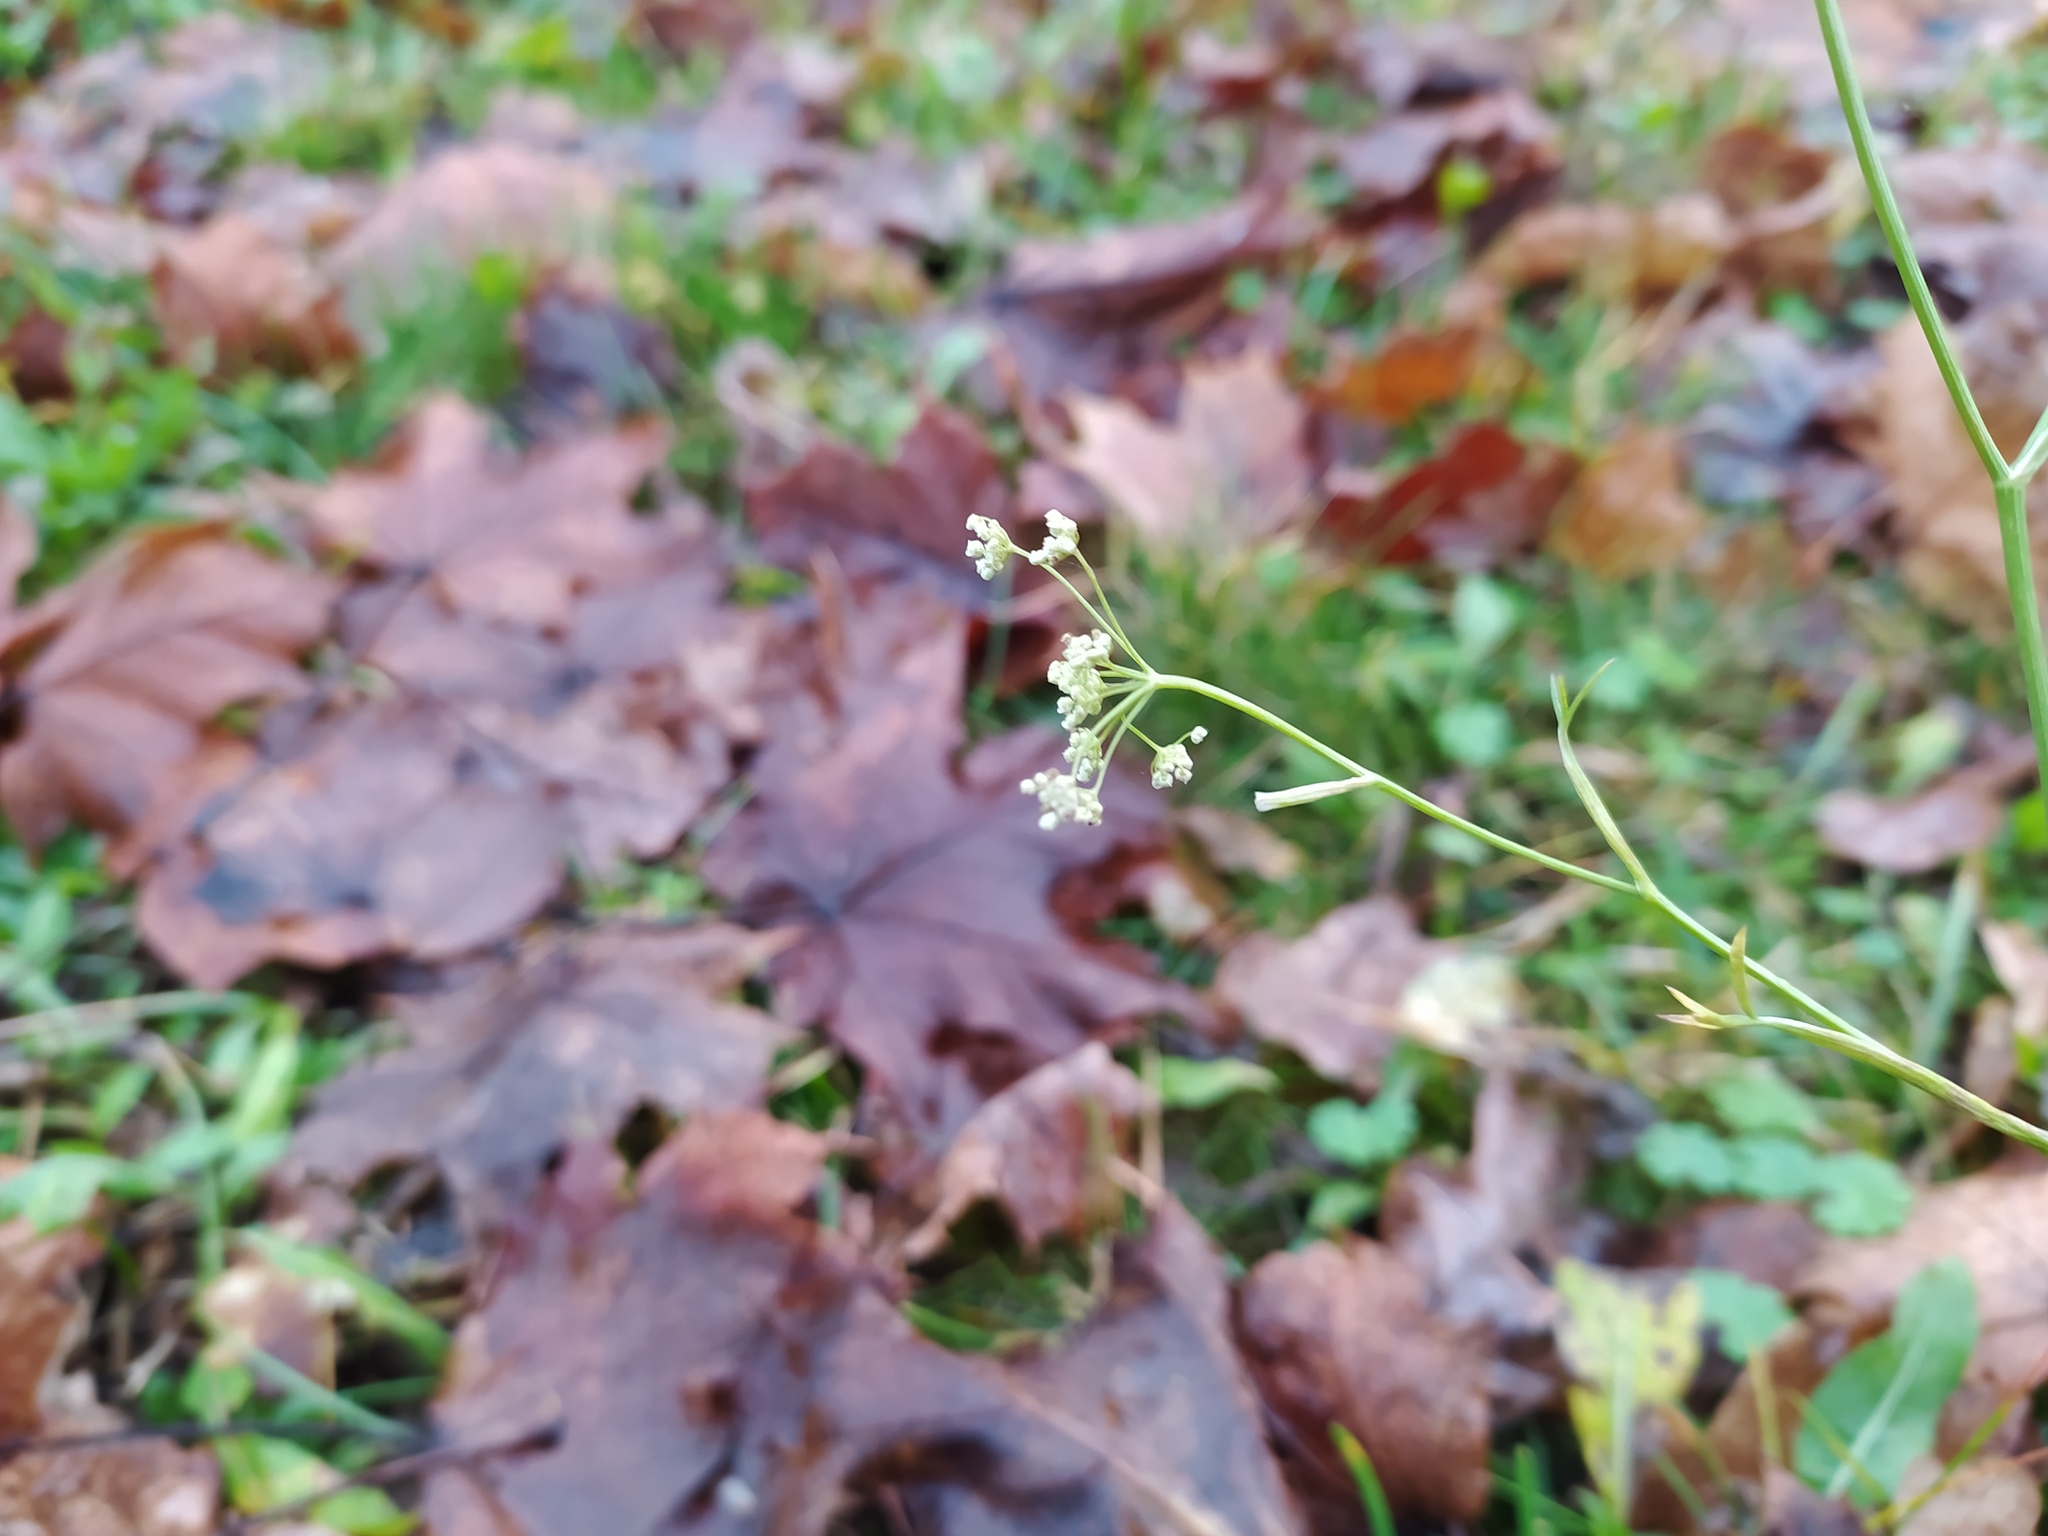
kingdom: Plantae
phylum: Tracheophyta
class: Magnoliopsida
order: Apiales
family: Apiaceae
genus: Pimpinella
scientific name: Pimpinella saxifraga
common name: Burnet-saxifrage
